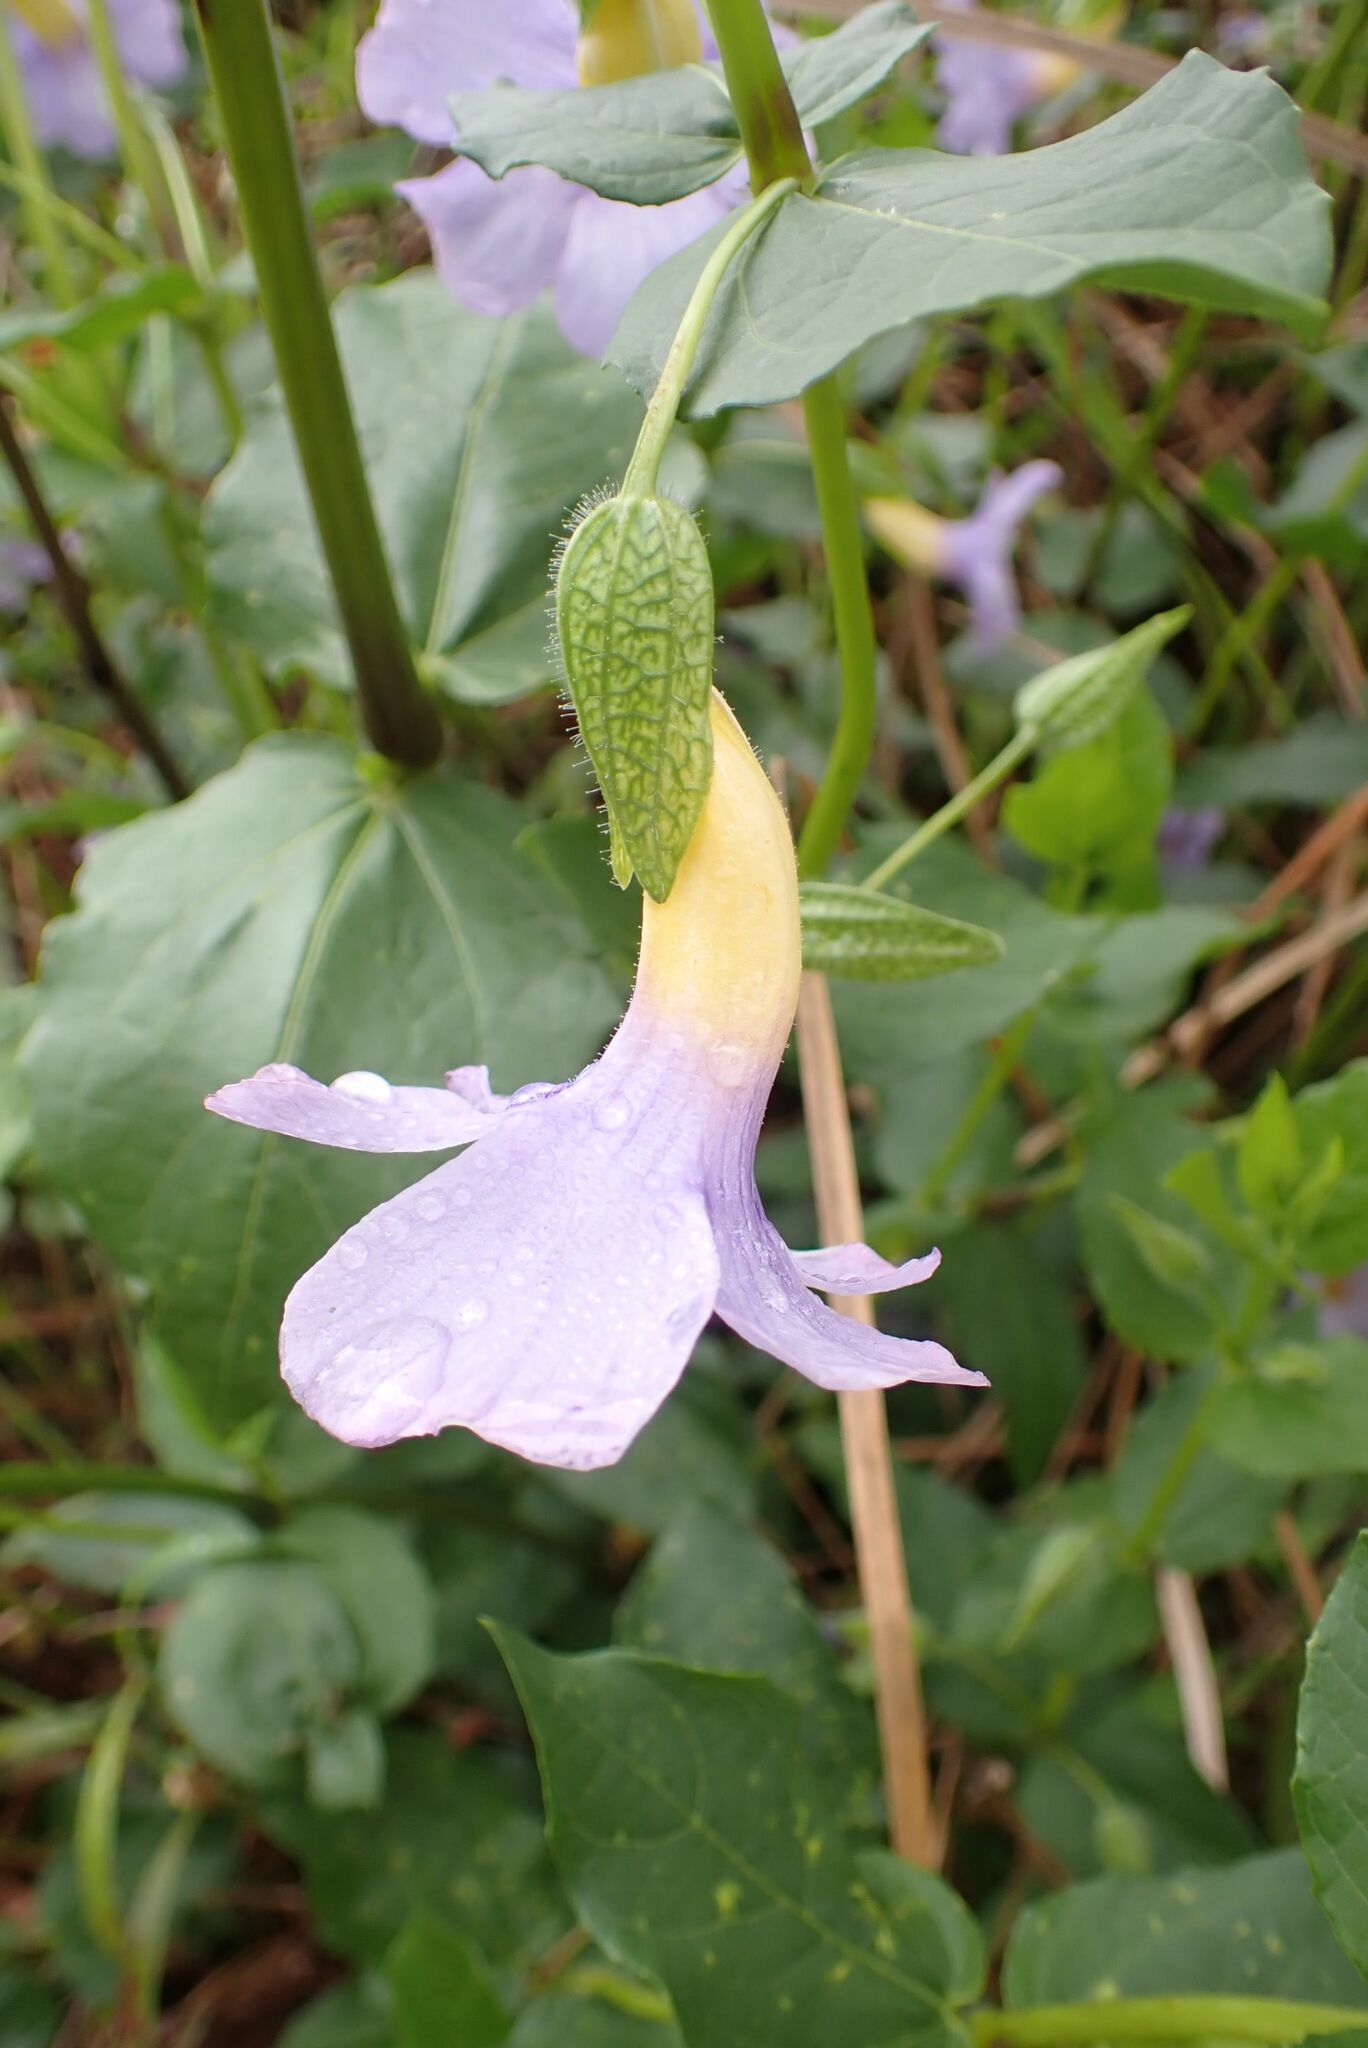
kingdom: Plantae
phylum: Tracheophyta
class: Magnoliopsida
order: Lamiales
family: Acanthaceae
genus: Thunbergia
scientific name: Thunbergia natalensis
